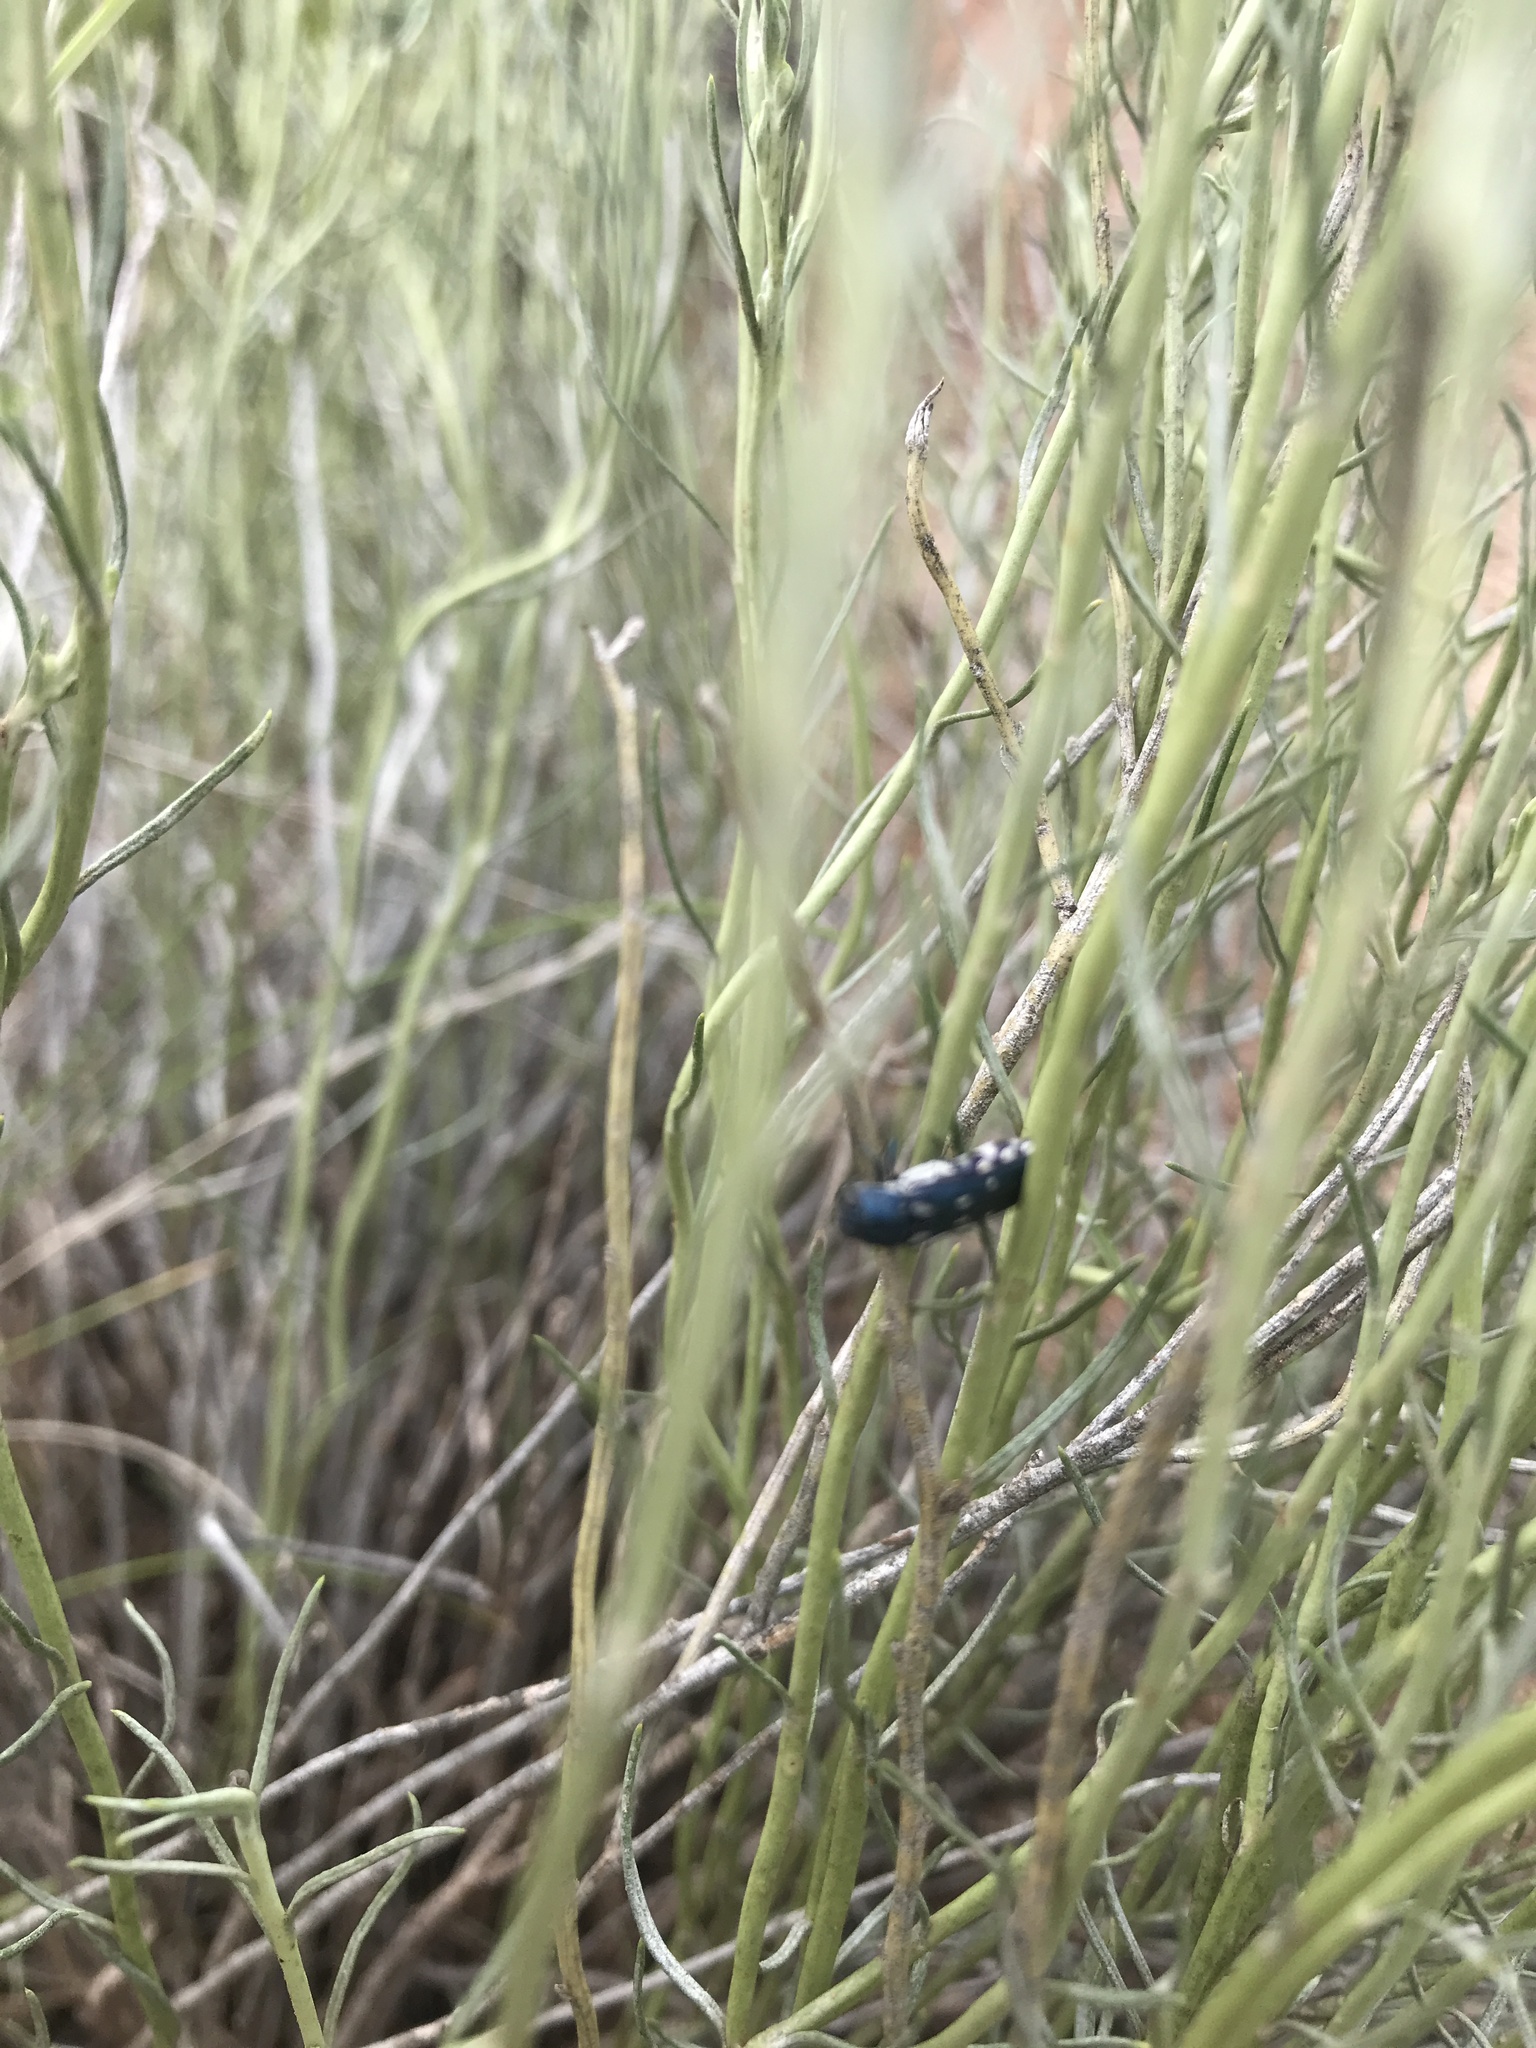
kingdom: Animalia
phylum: Arthropoda
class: Insecta
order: Coleoptera
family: Buprestidae
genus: Agrilus
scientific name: Agrilus walsinghami
